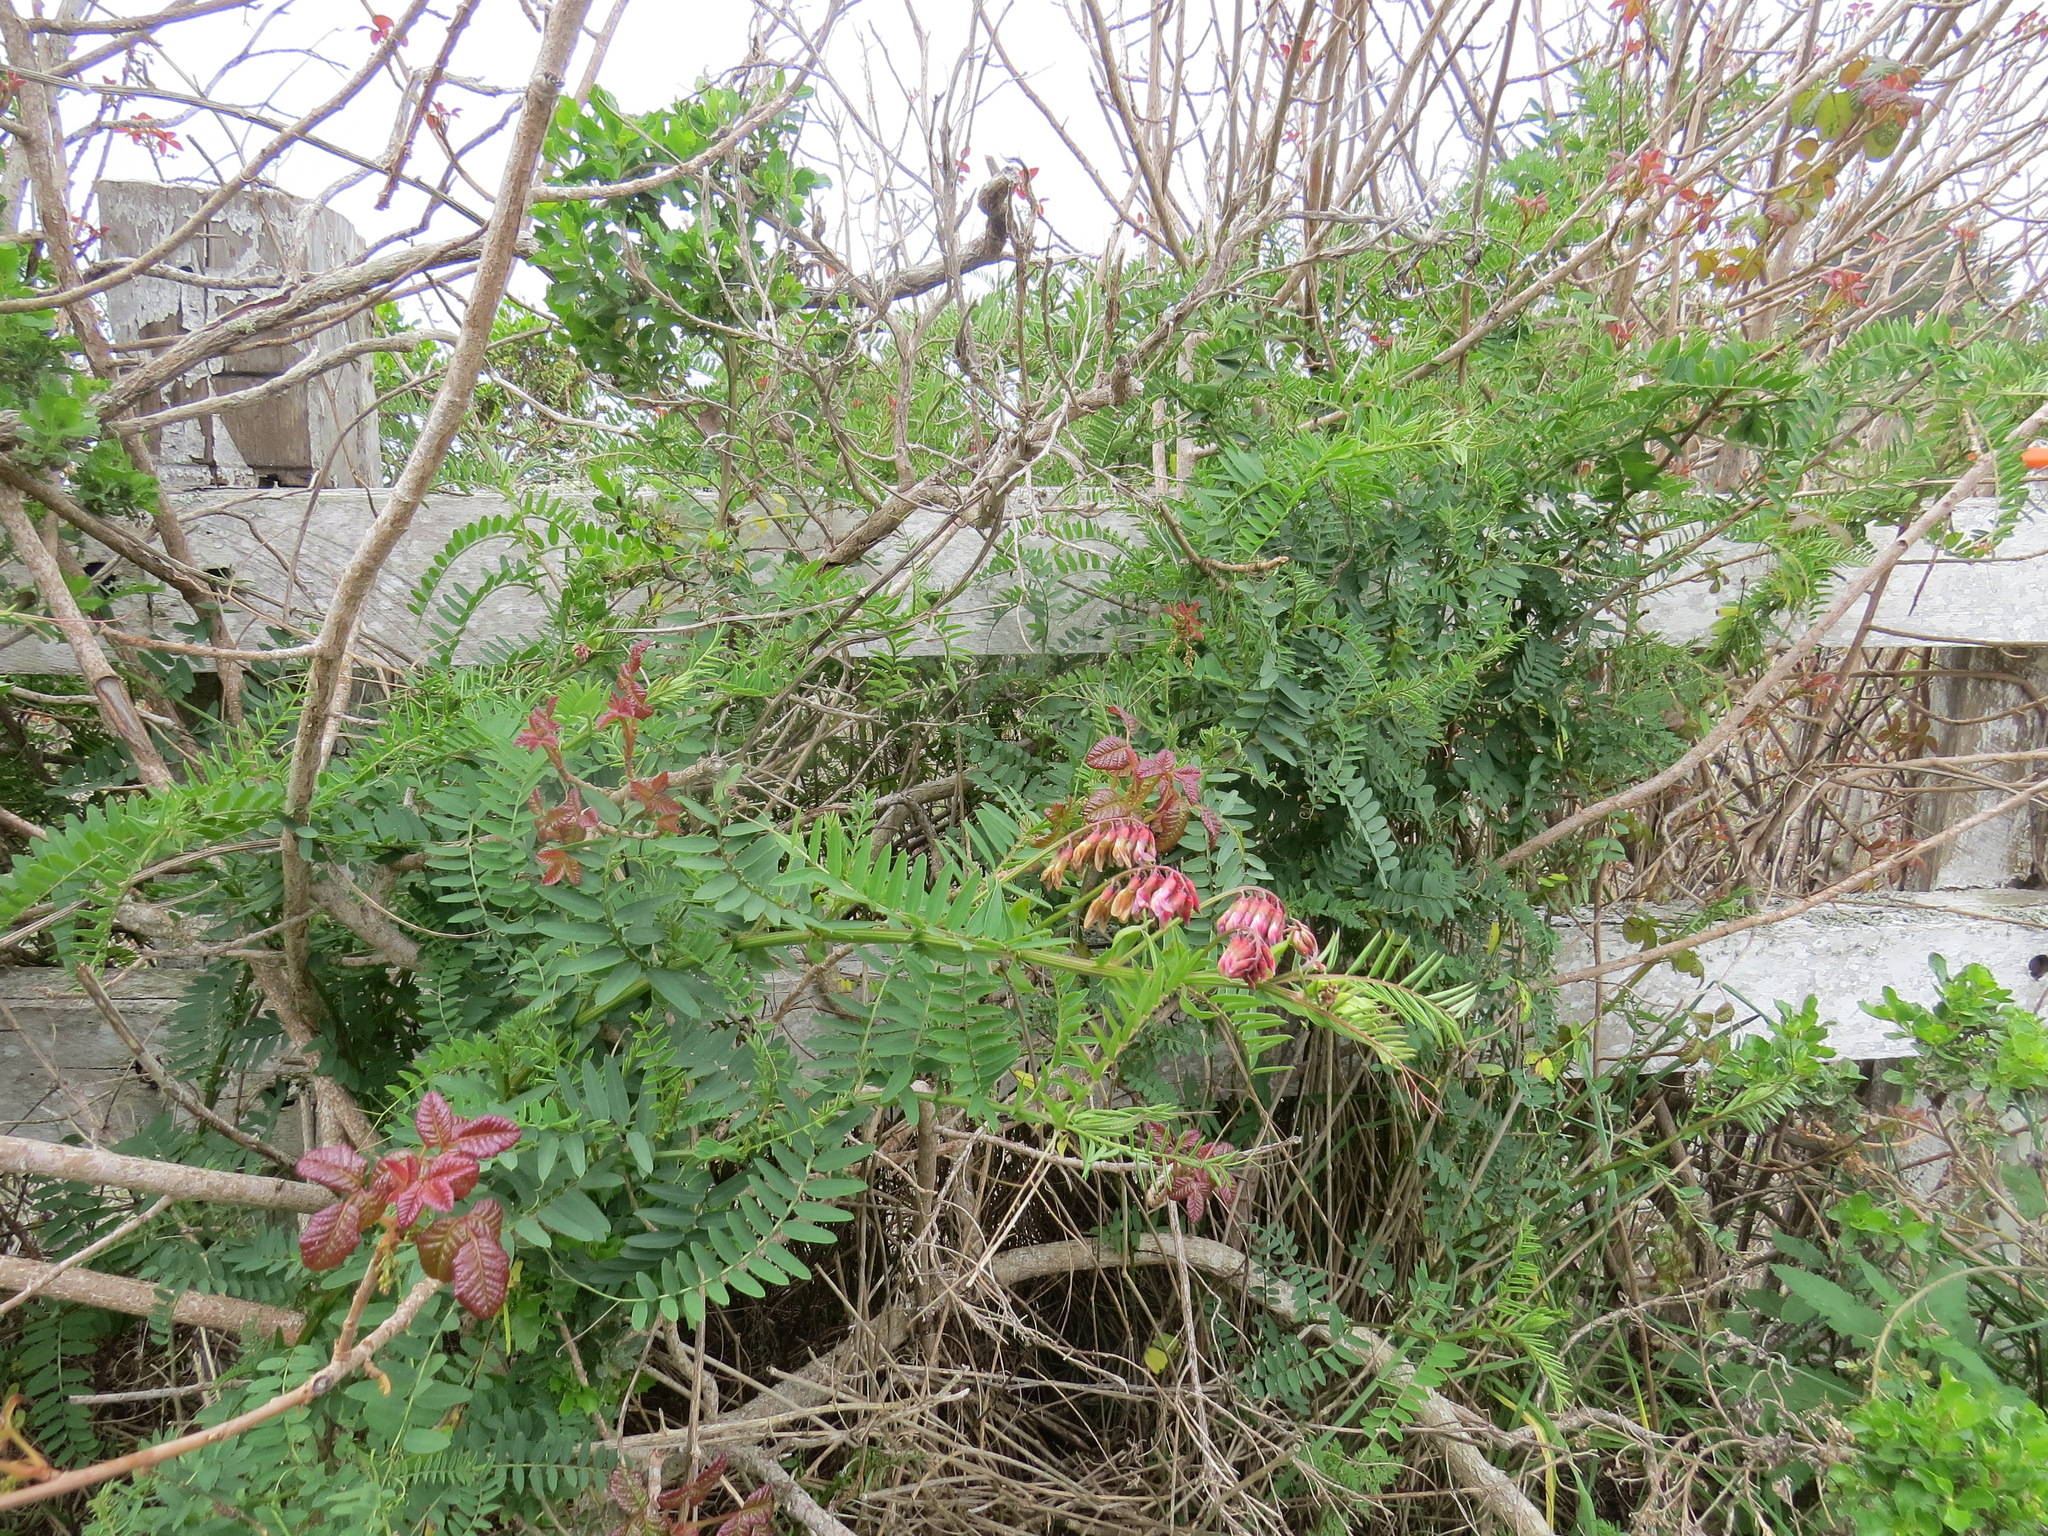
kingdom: Plantae
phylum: Tracheophyta
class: Magnoliopsida
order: Fabales
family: Fabaceae
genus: Vicia
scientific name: Vicia
